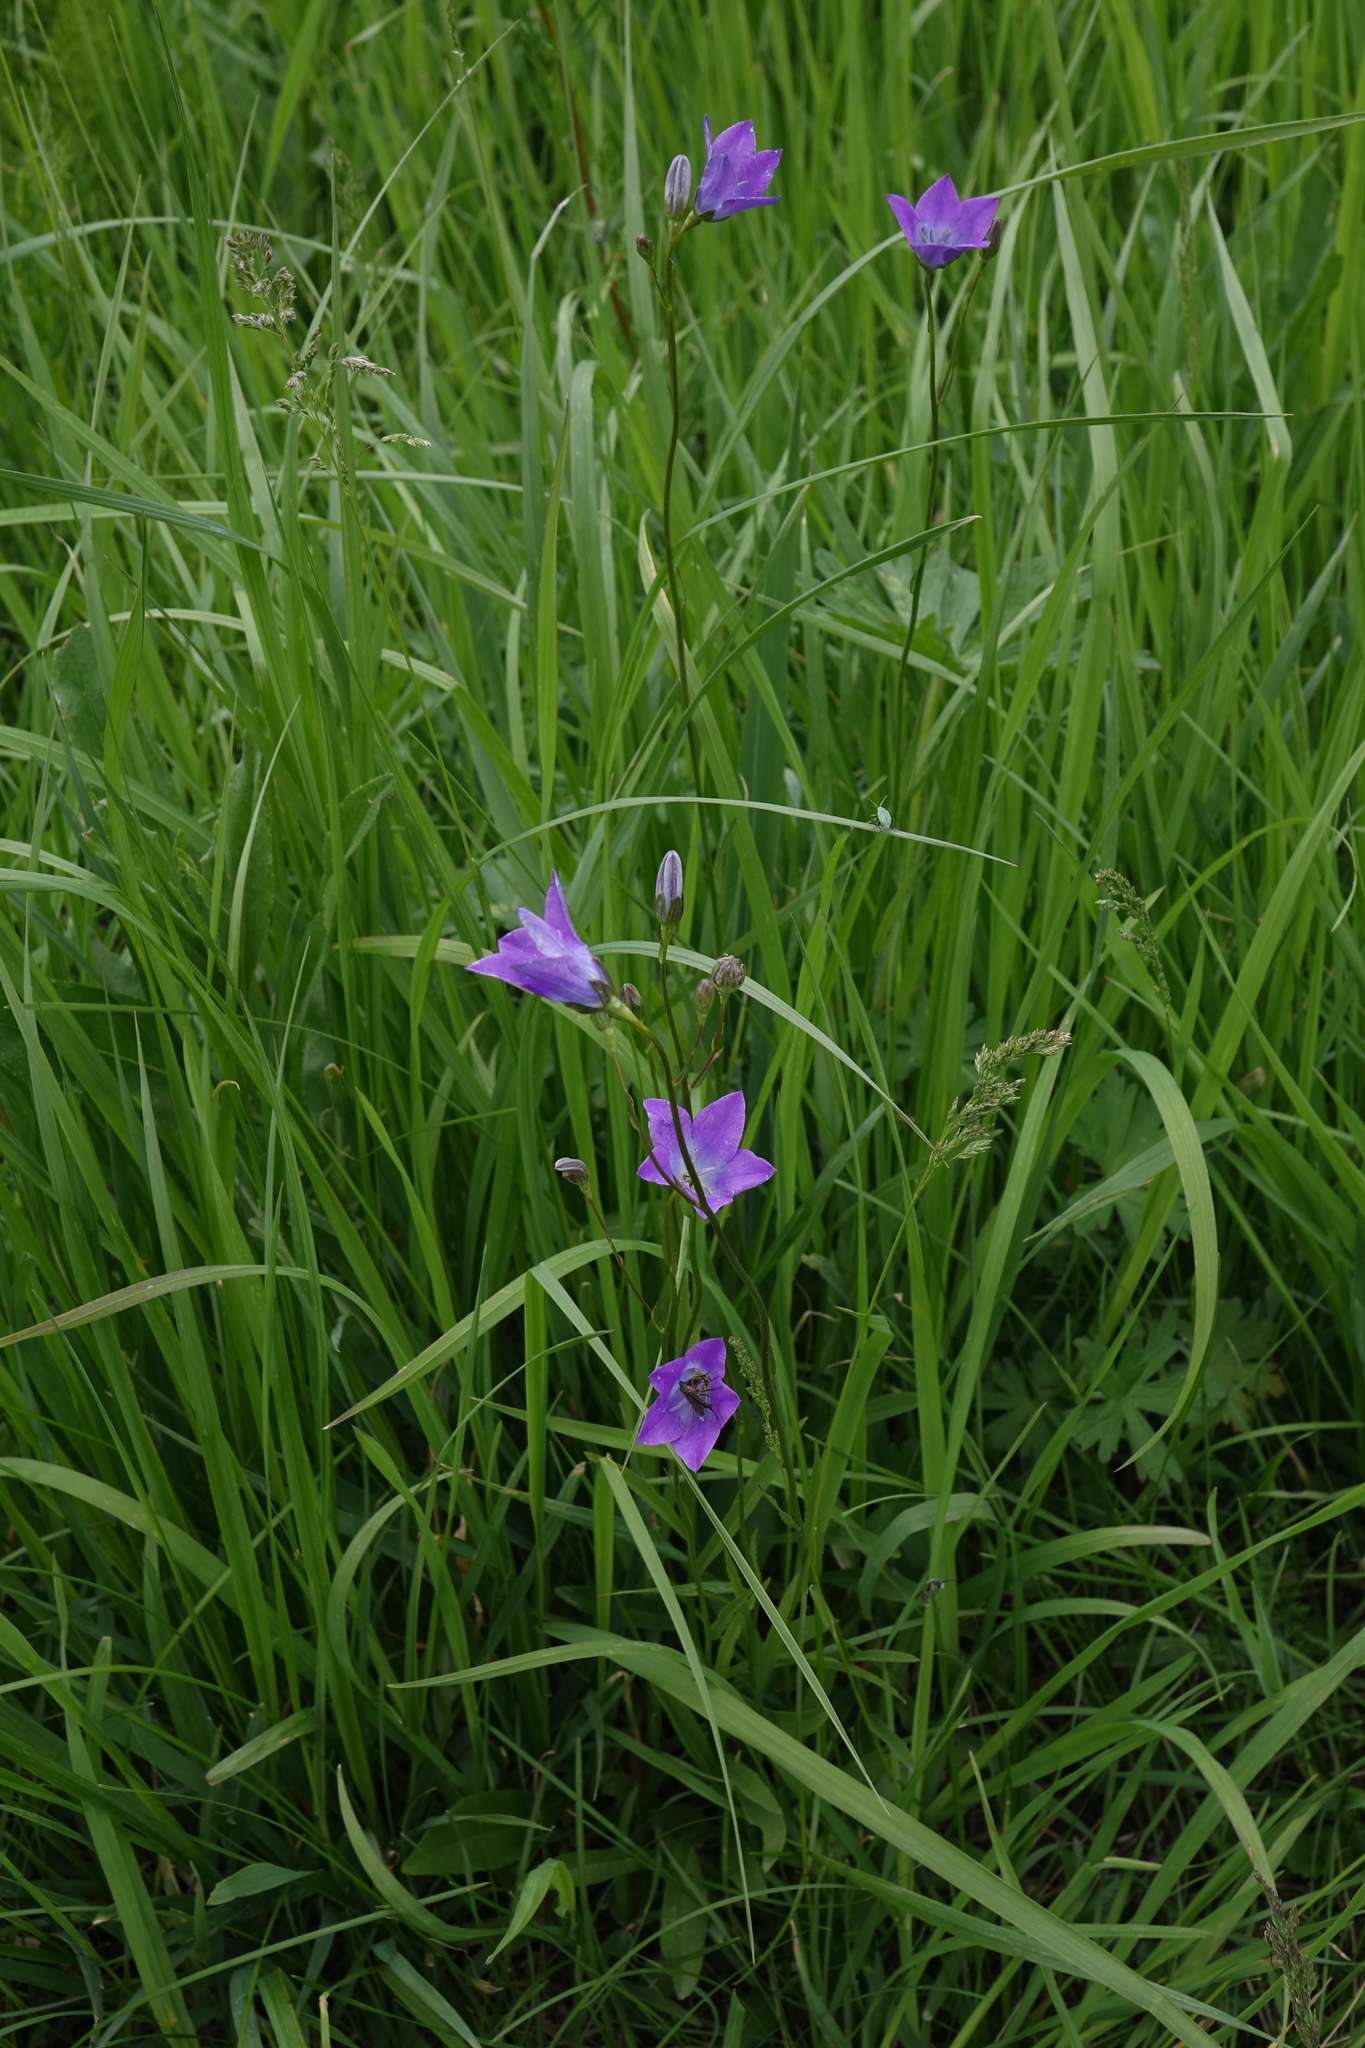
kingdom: Plantae
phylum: Tracheophyta
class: Magnoliopsida
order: Asterales
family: Campanulaceae
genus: Campanula
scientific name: Campanula stevenii
